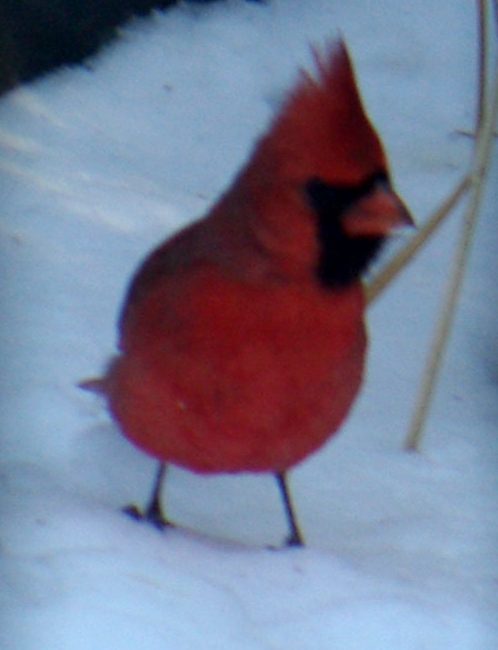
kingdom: Animalia
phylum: Chordata
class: Aves
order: Passeriformes
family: Cardinalidae
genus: Cardinalis
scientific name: Cardinalis cardinalis
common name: Northern cardinal
